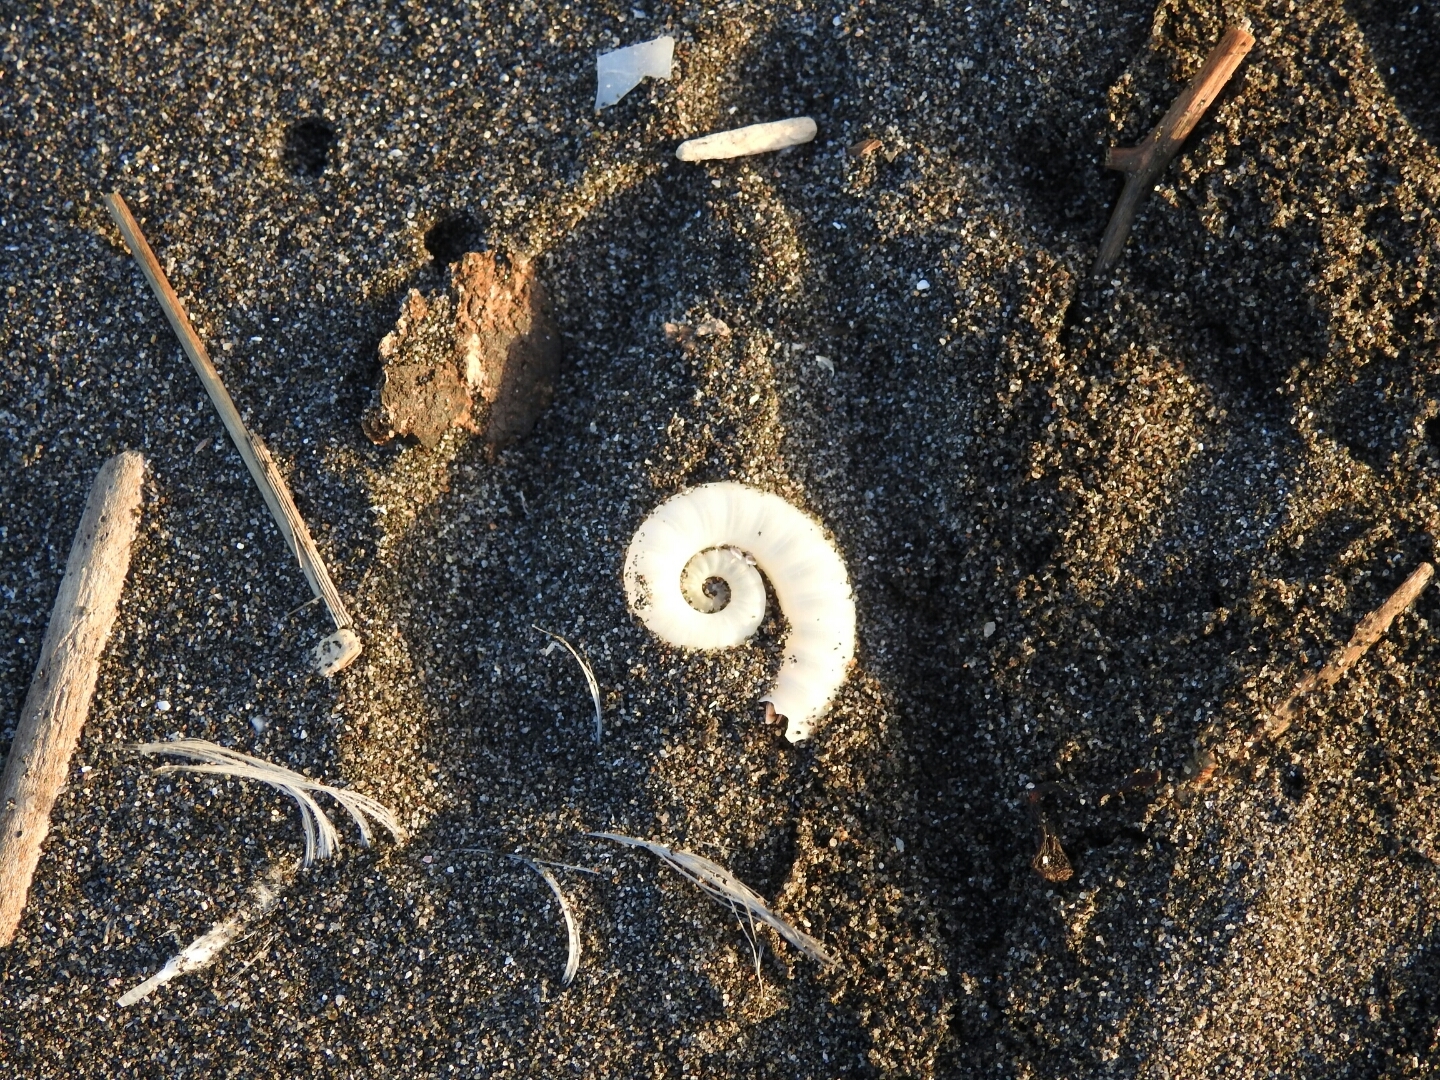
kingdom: Animalia
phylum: Mollusca
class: Cephalopoda
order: Spirulida
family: Spirulidae
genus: Spirula
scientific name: Spirula spirula
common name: Ram's horn squid
